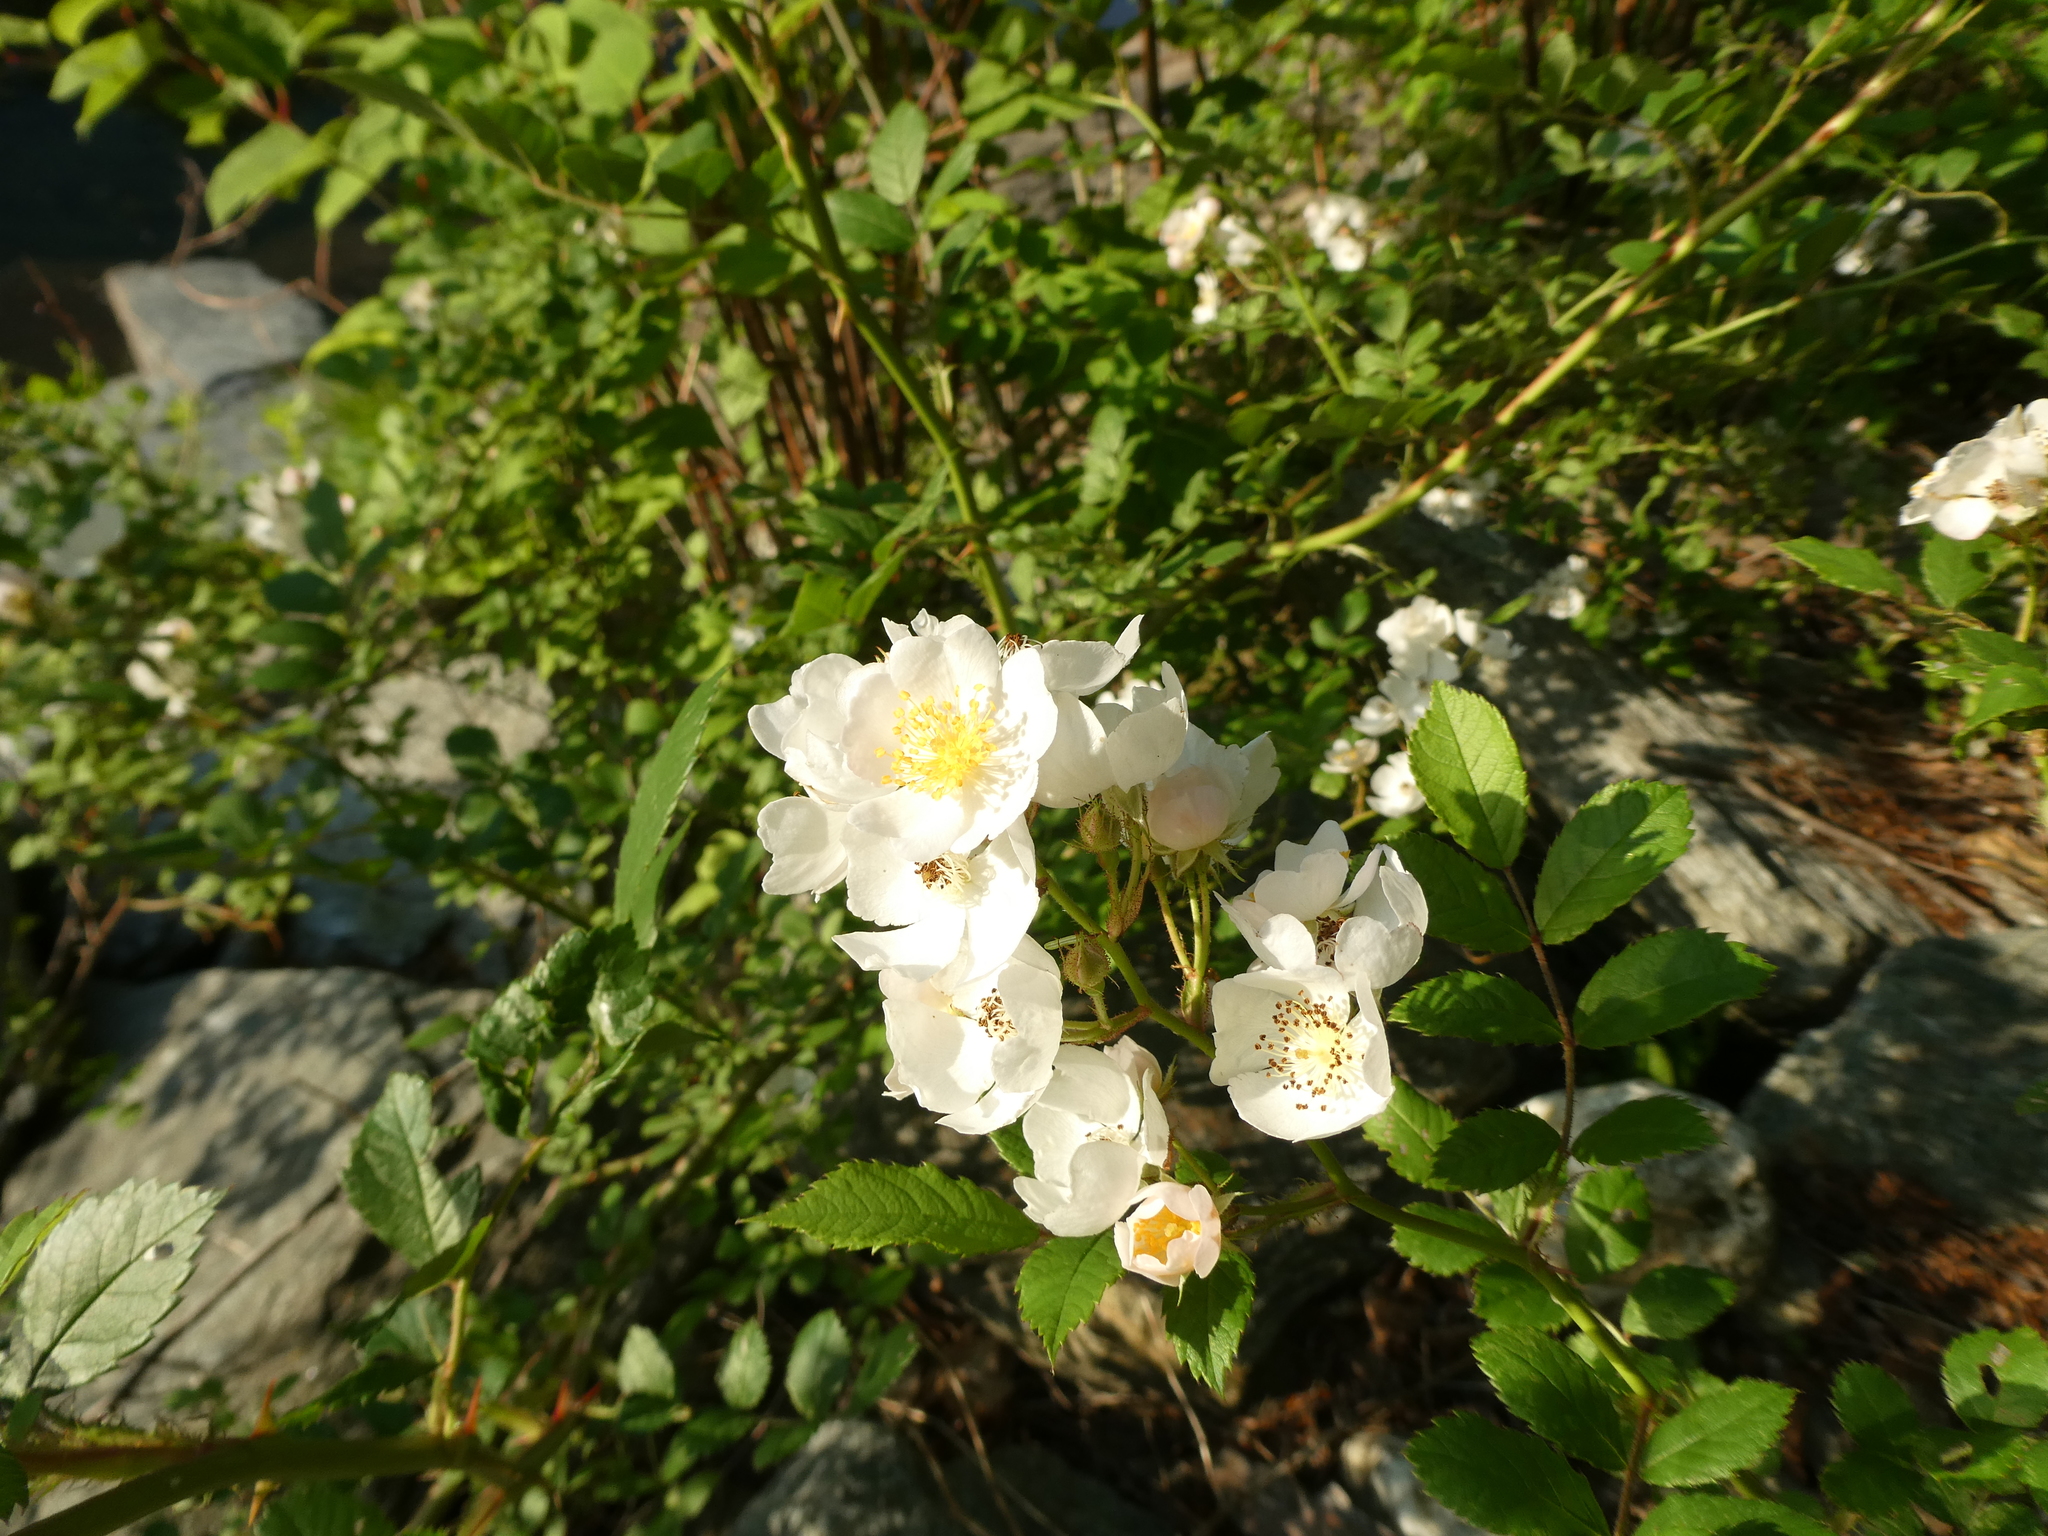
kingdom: Plantae
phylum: Tracheophyta
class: Magnoliopsida
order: Rosales
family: Rosaceae
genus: Rosa
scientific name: Rosa multiflora
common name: Multiflora rose
